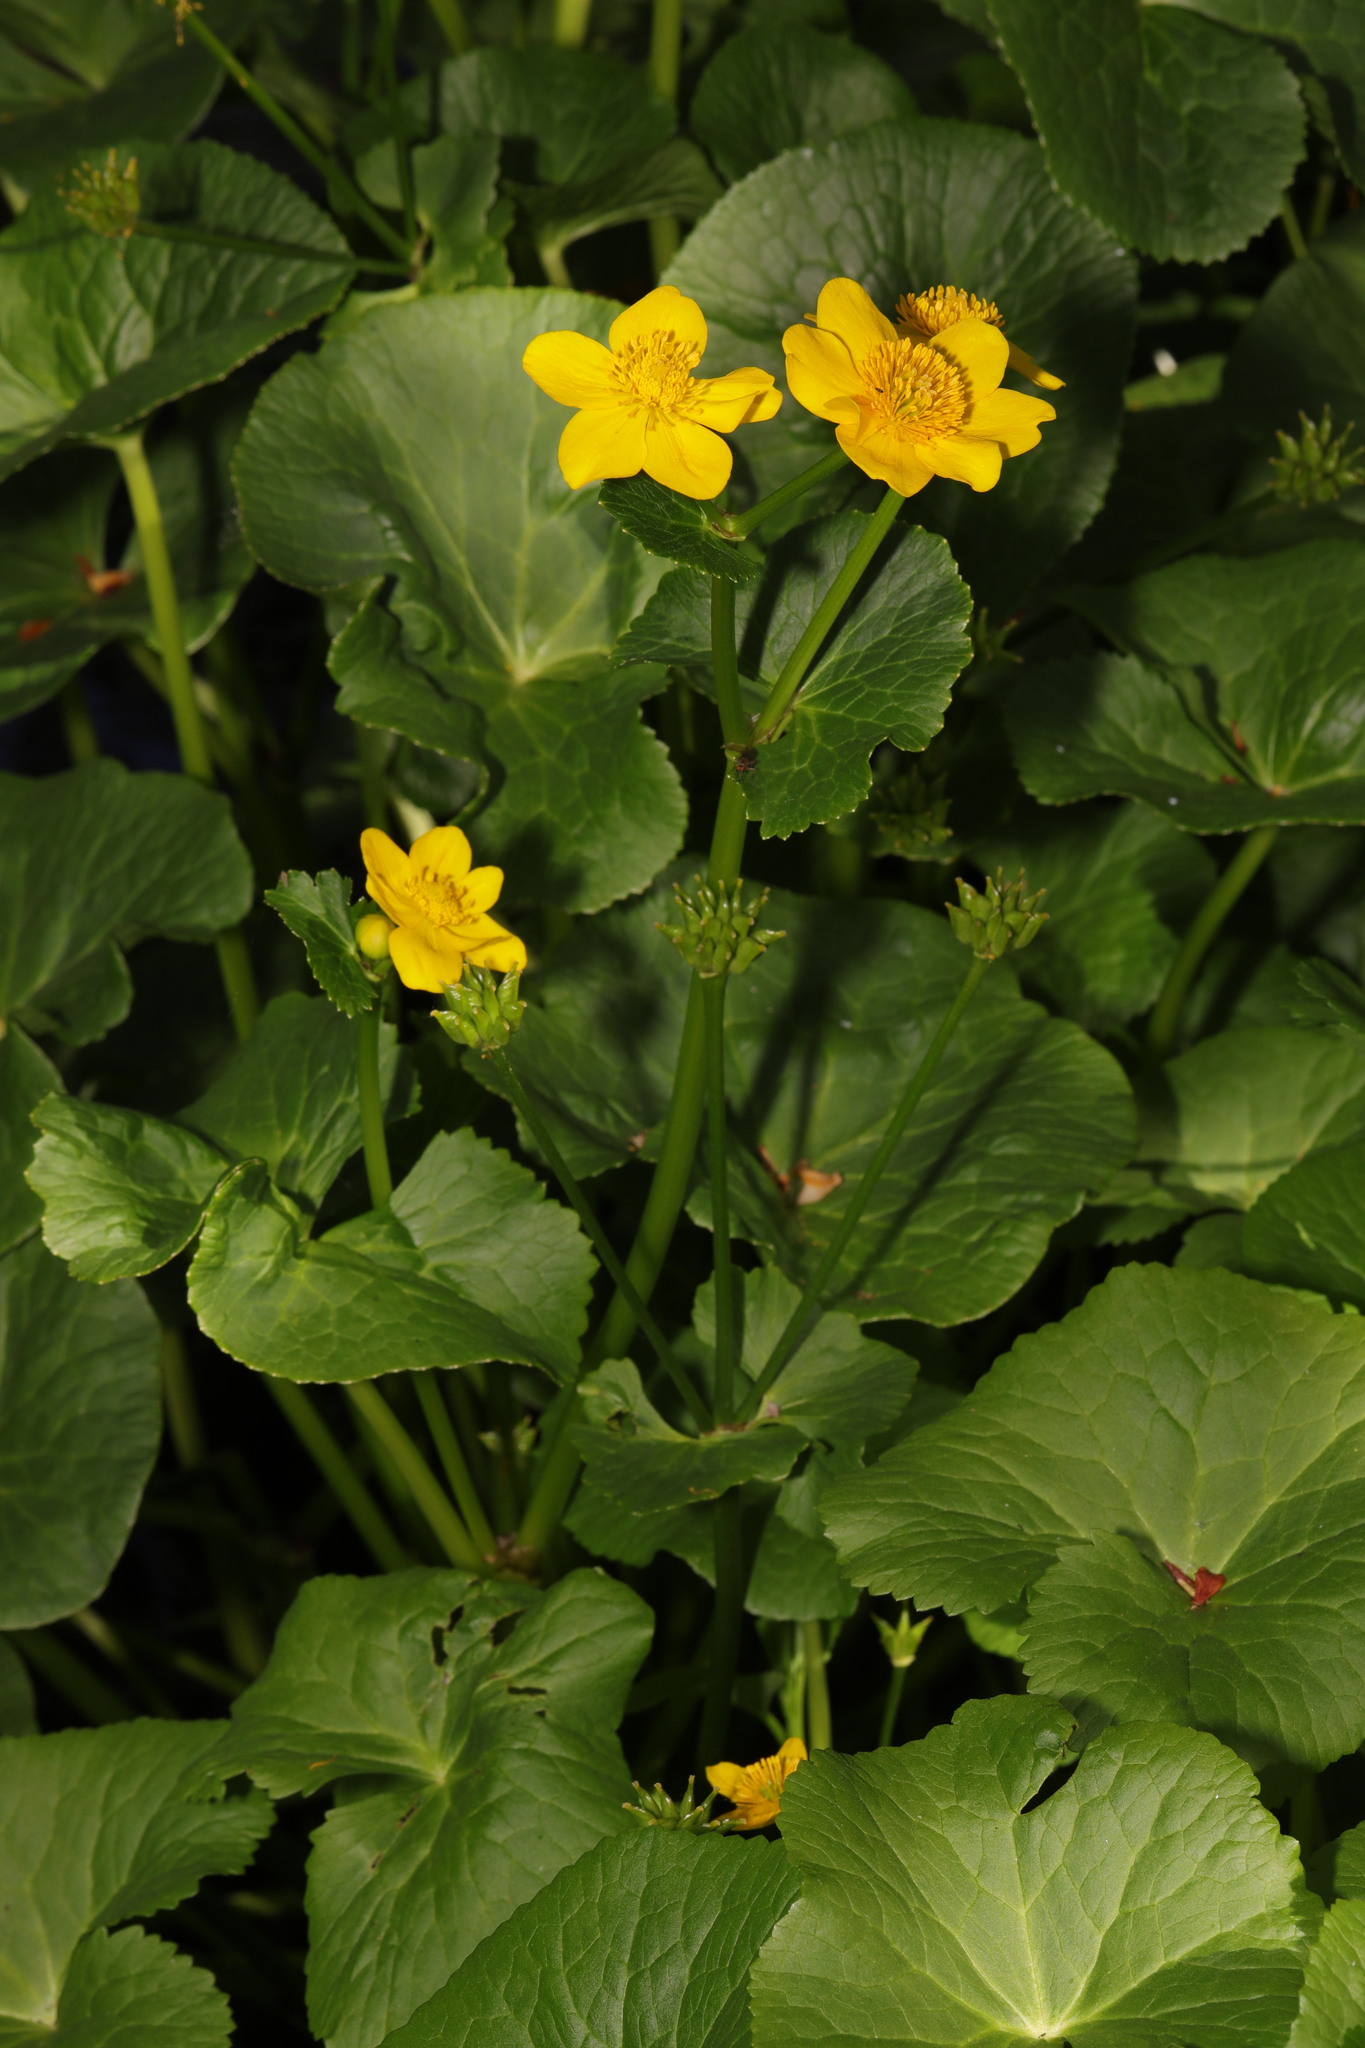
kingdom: Plantae
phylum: Tracheophyta
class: Magnoliopsida
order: Ranunculales
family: Ranunculaceae
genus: Caltha
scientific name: Caltha palustris
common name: Marsh marigold
